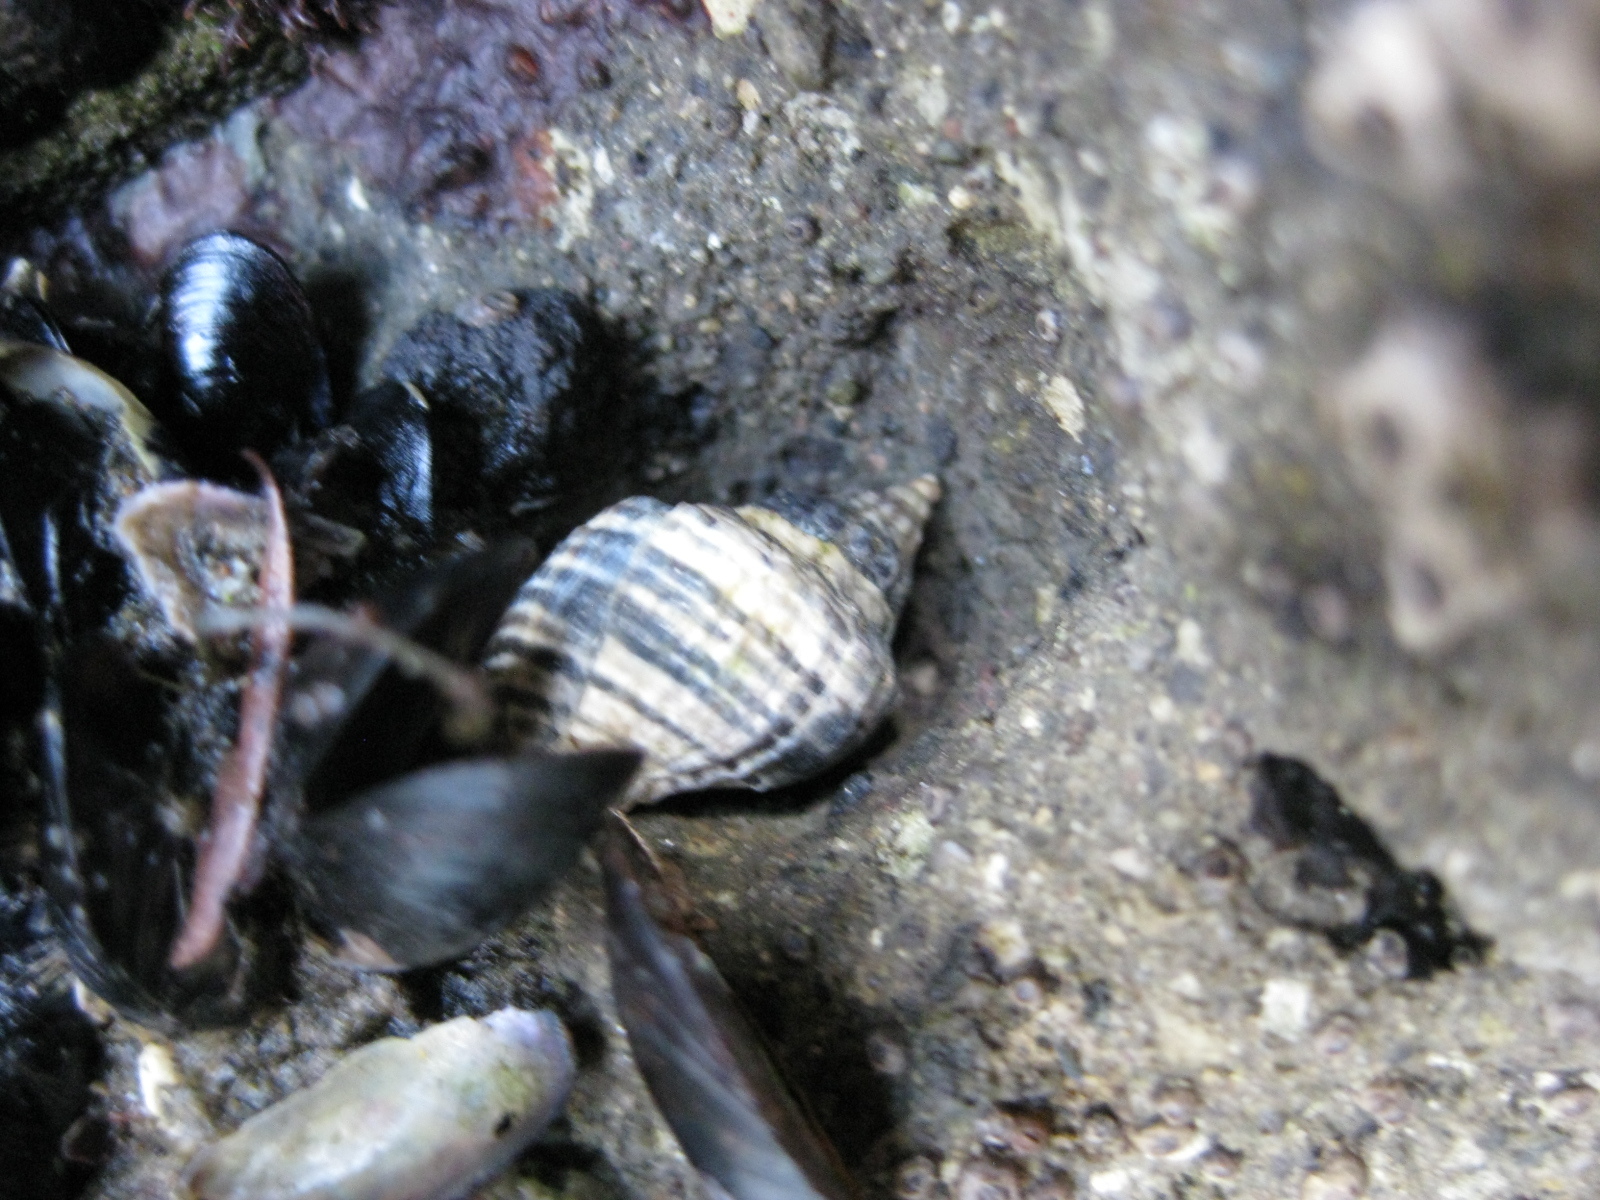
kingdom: Animalia
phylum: Mollusca
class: Gastropoda
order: Neogastropoda
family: Muricidae
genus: Haustrum
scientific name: Haustrum albomarginatum
